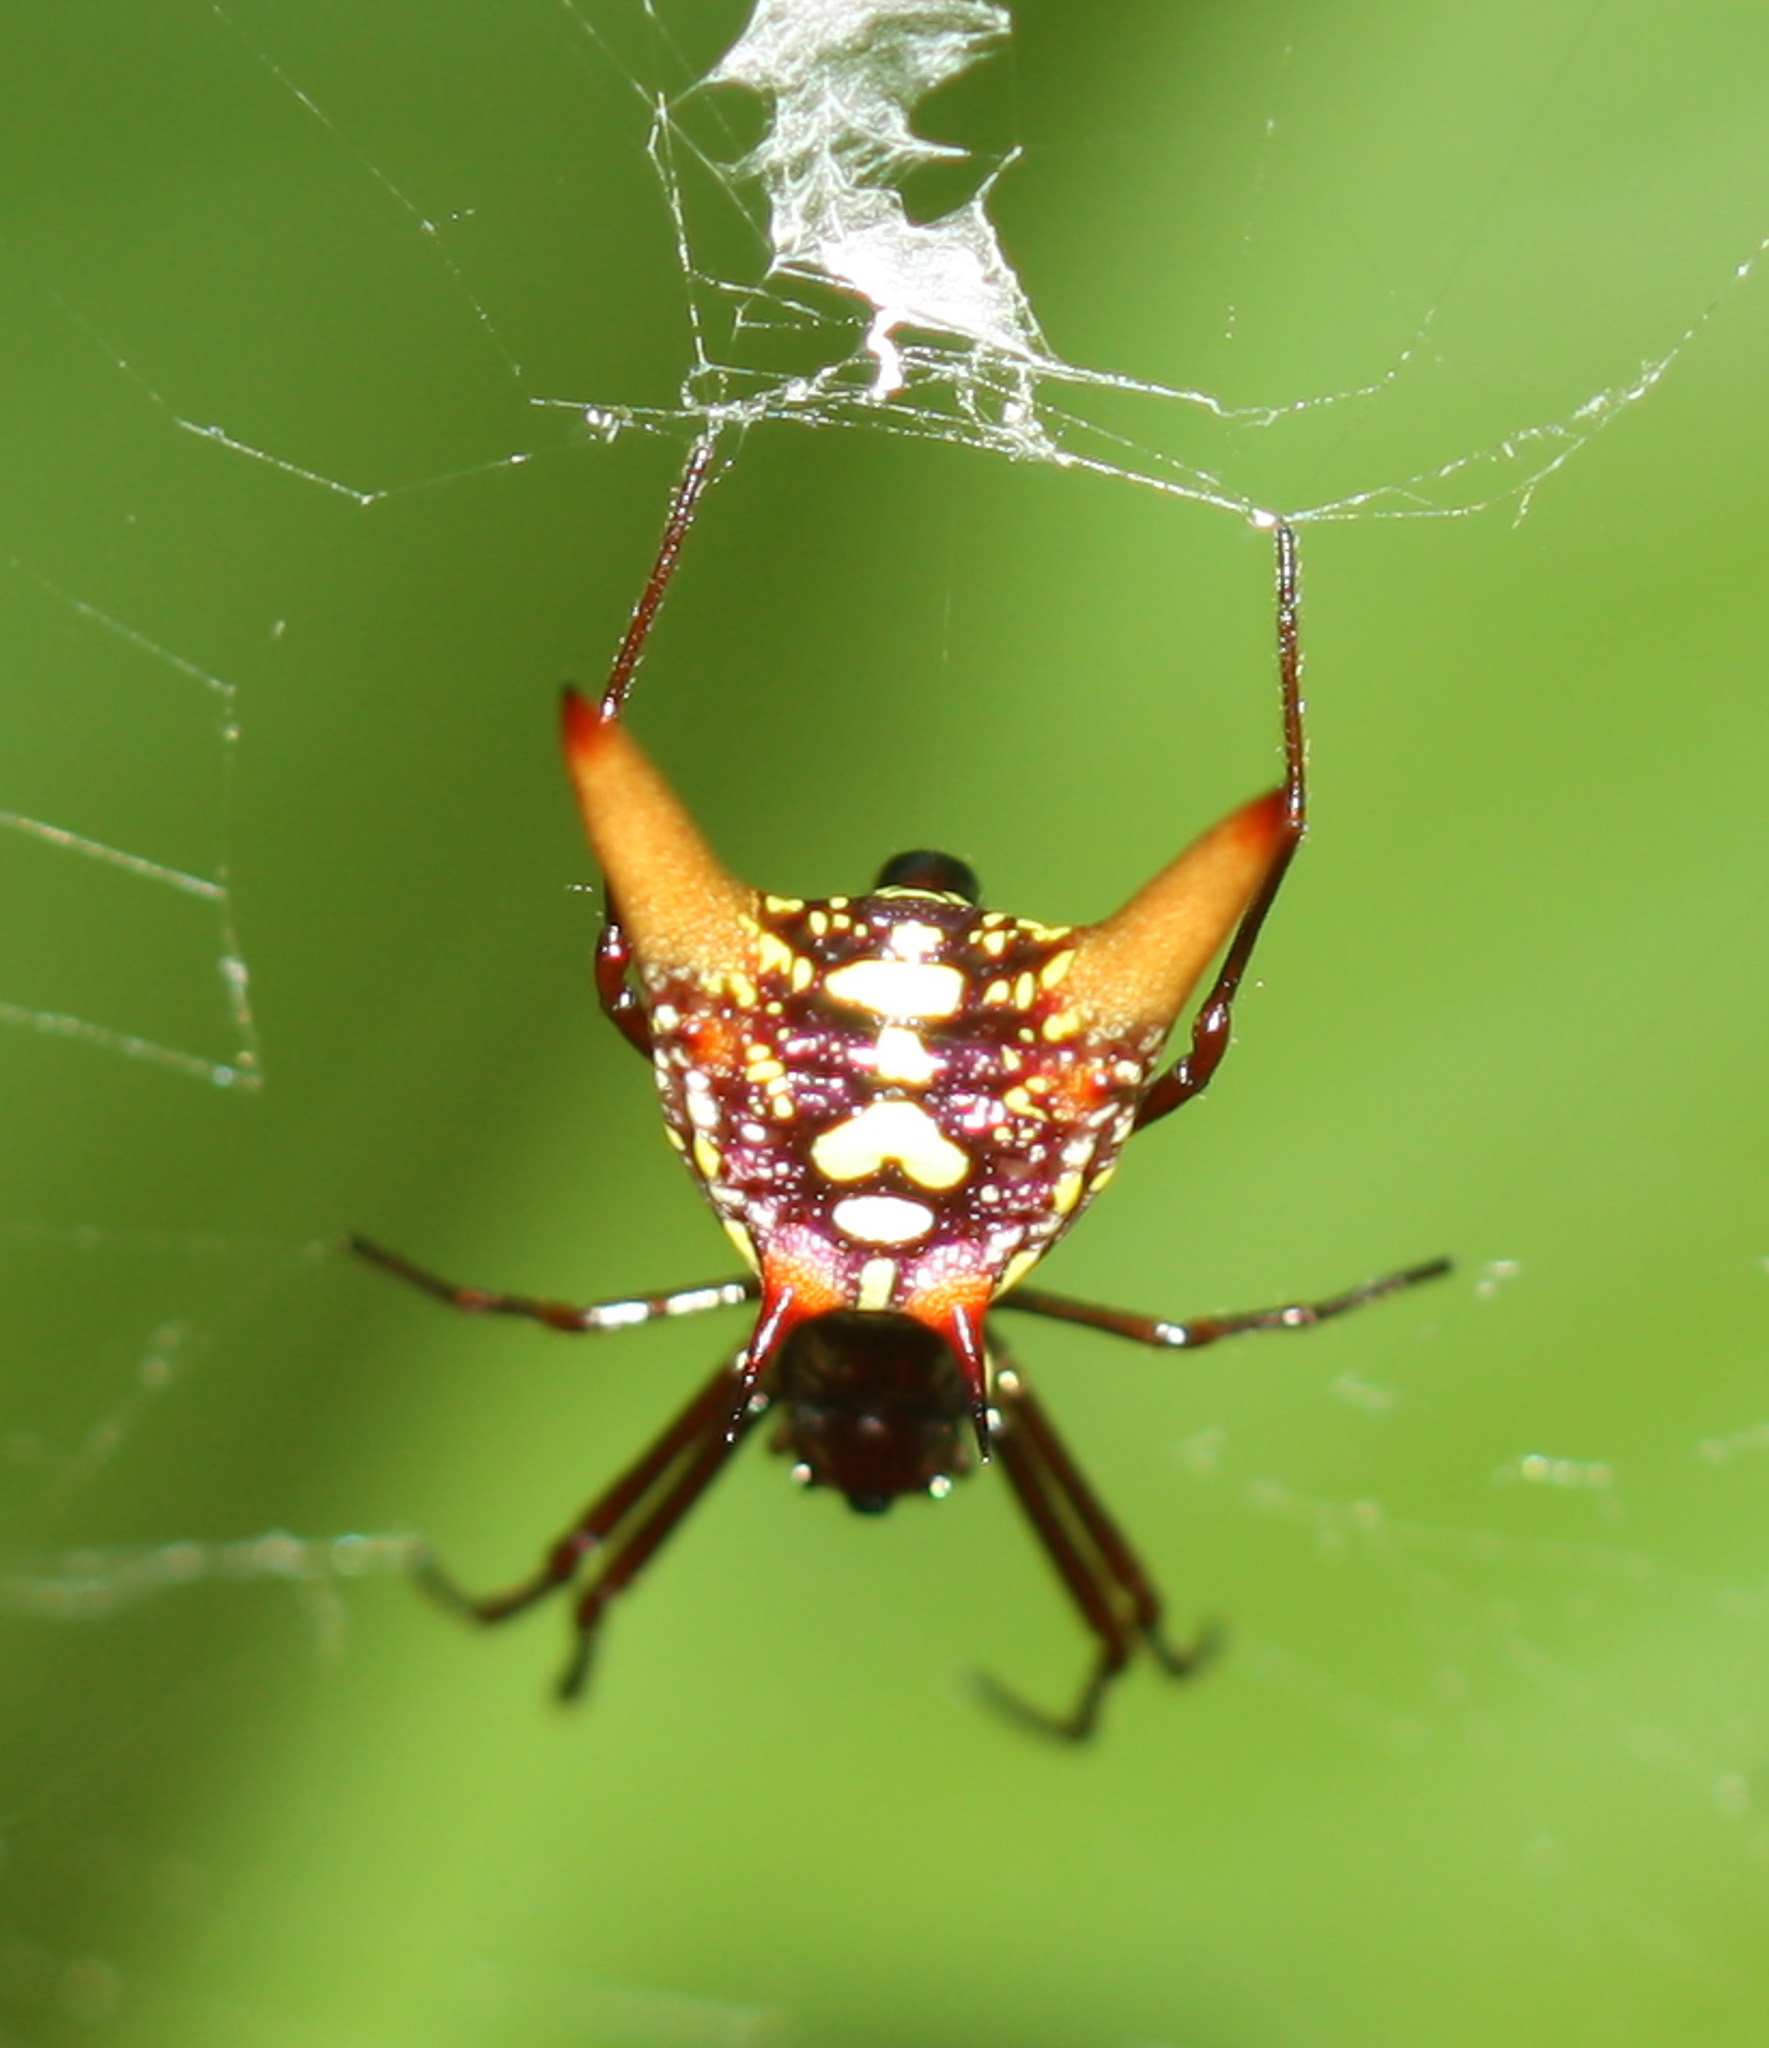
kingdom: Animalia
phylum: Arthropoda
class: Arachnida
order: Araneae
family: Araneidae
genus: Micrathena
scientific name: Micrathena sexspinosa
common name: Orb weavers
